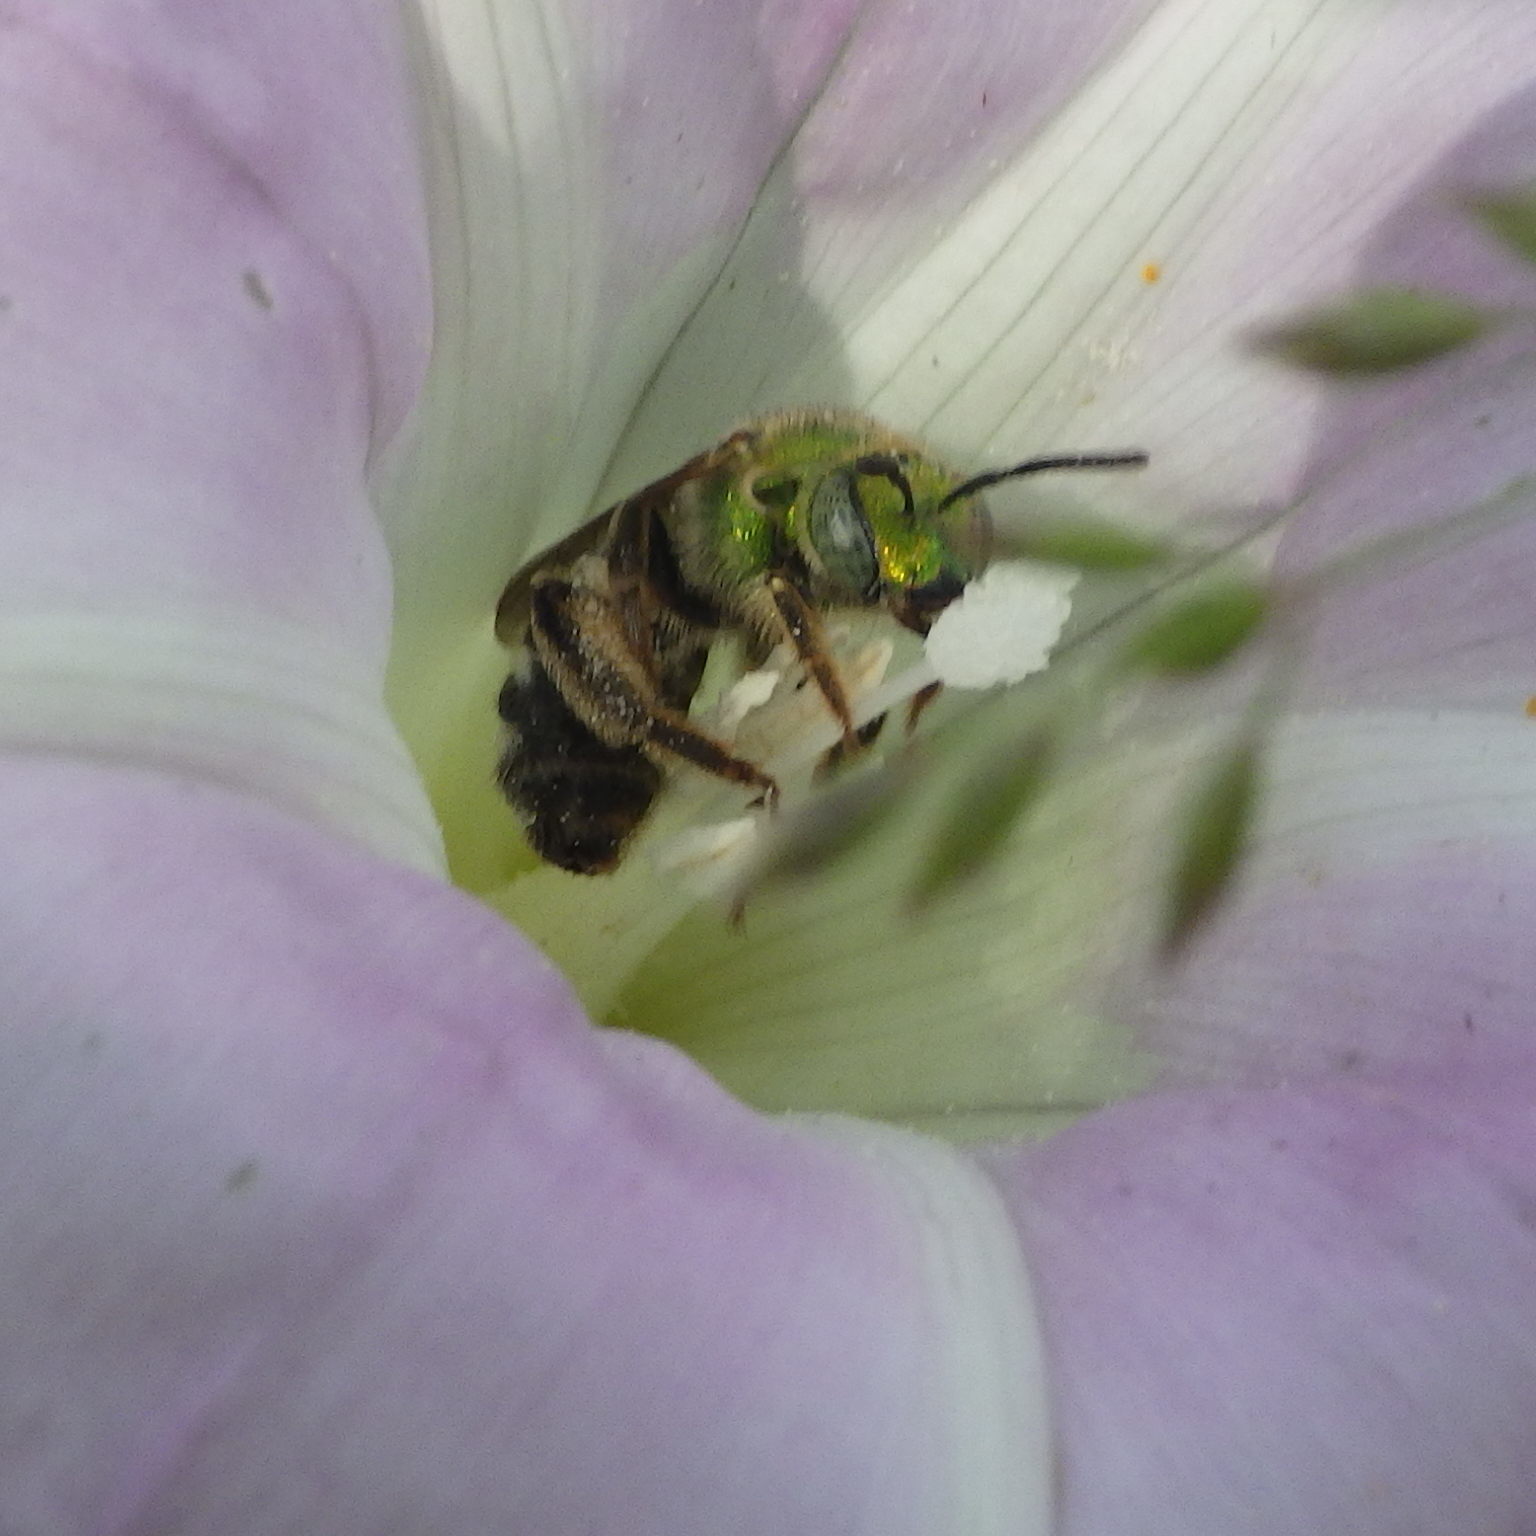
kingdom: Animalia
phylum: Arthropoda
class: Insecta
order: Hymenoptera
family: Halictidae
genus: Agapostemon
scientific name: Agapostemon virescens
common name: Bicolored striped sweat bee
